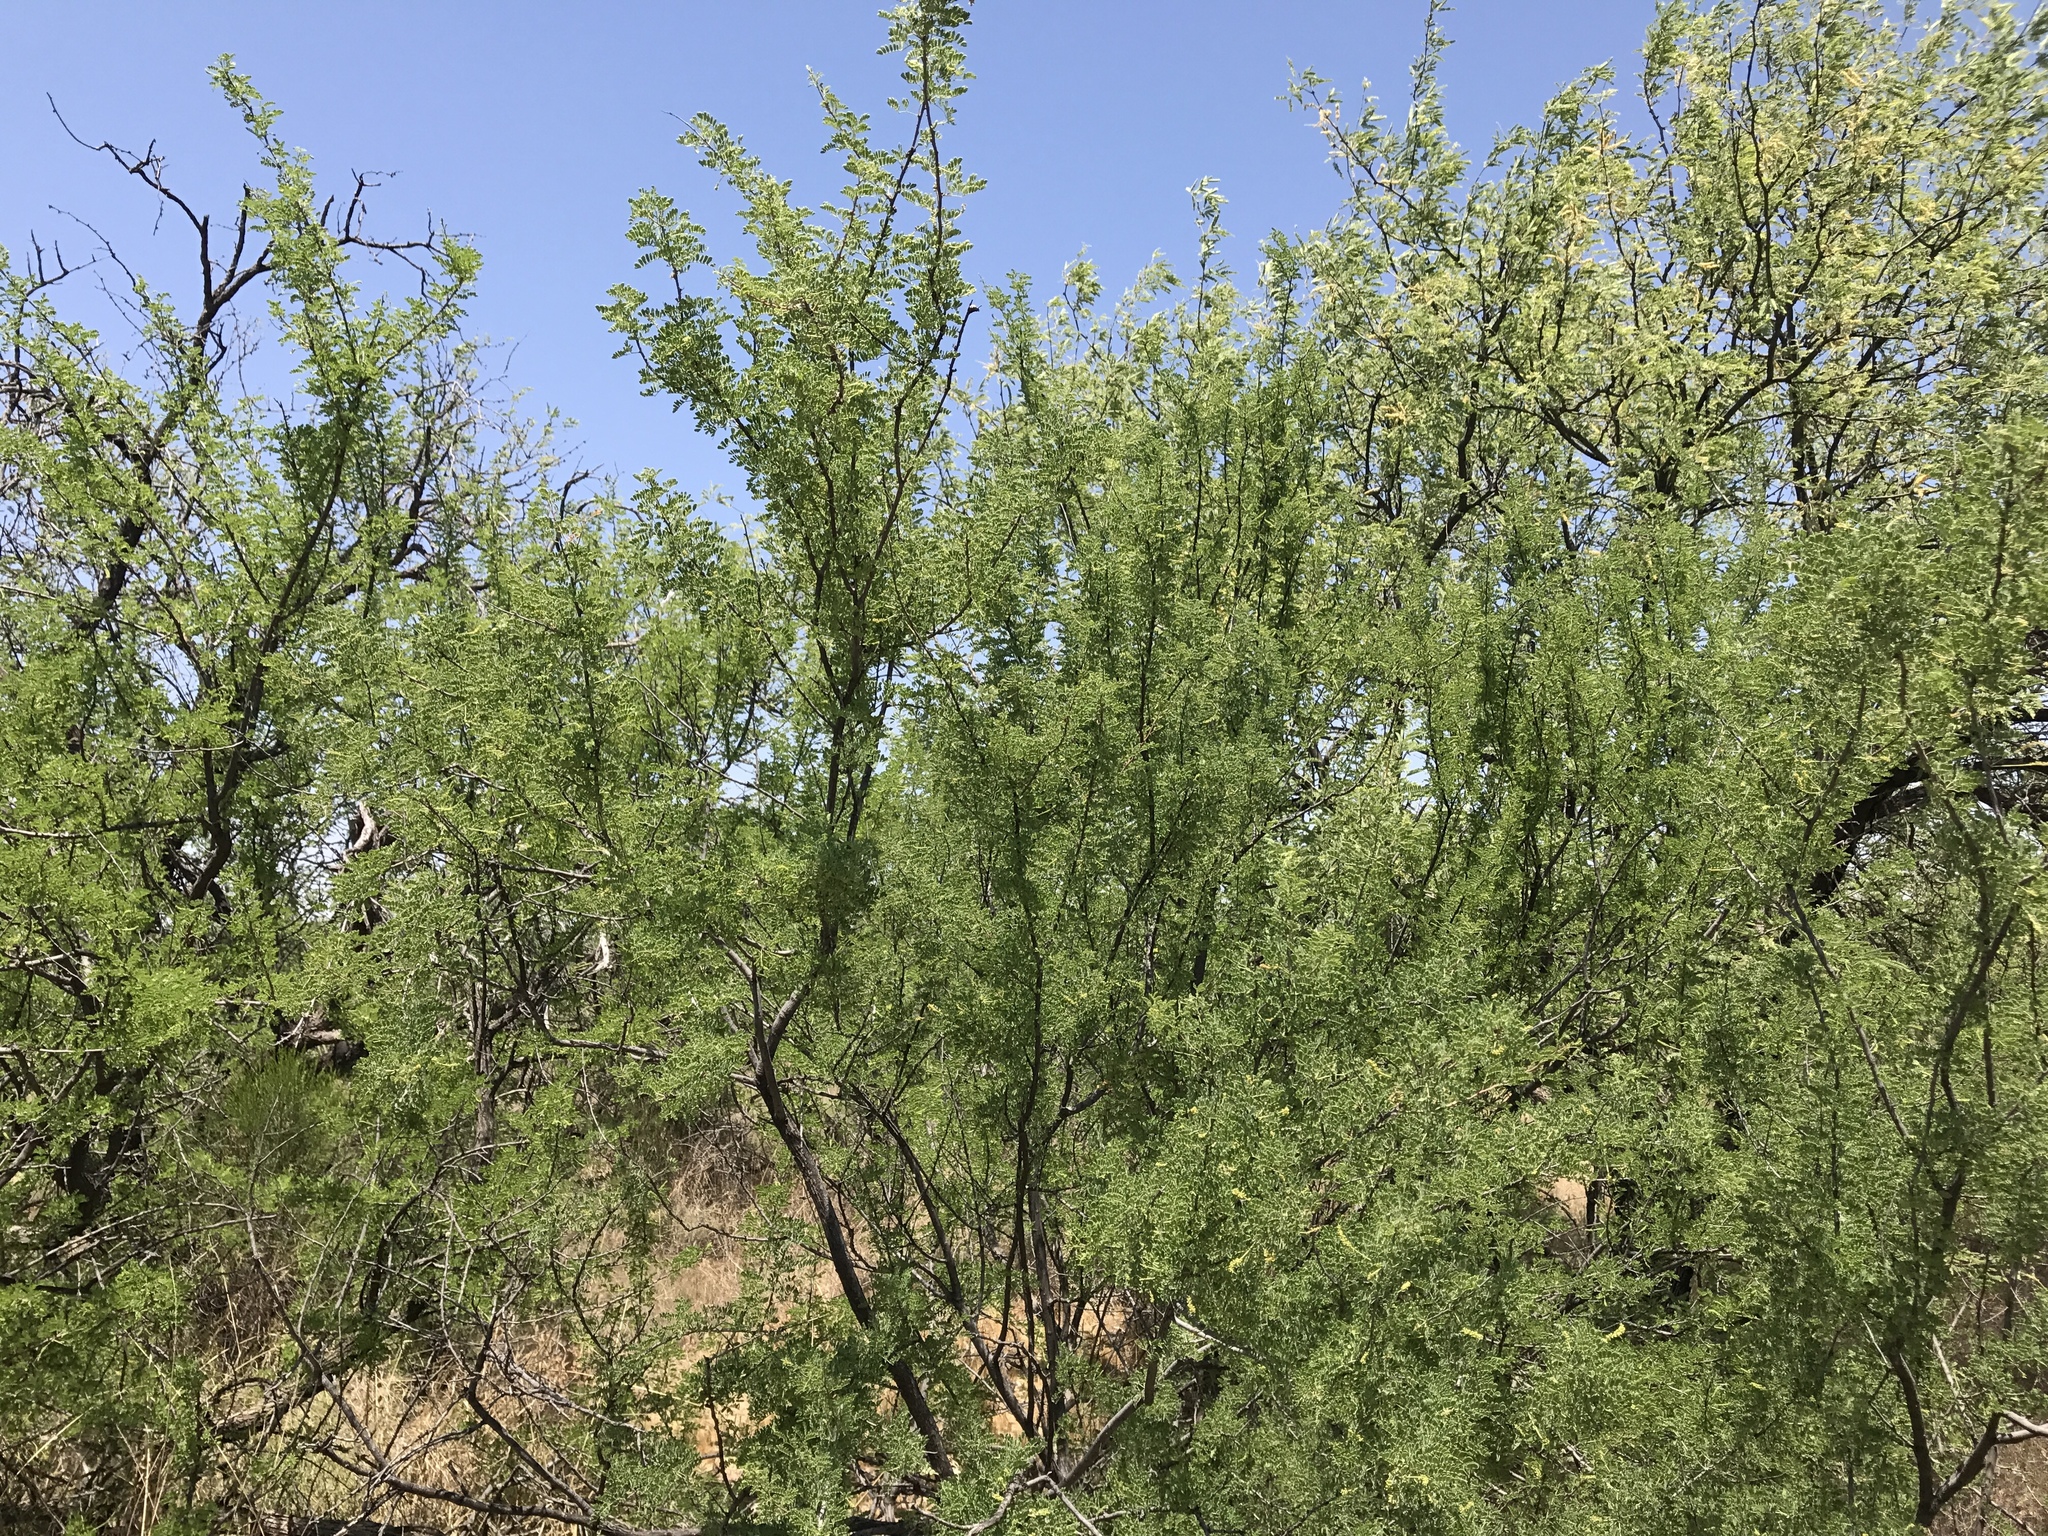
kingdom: Plantae
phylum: Tracheophyta
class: Magnoliopsida
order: Fabales
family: Fabaceae
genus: Senegalia
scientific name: Senegalia greggii
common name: Texas-mimosa
